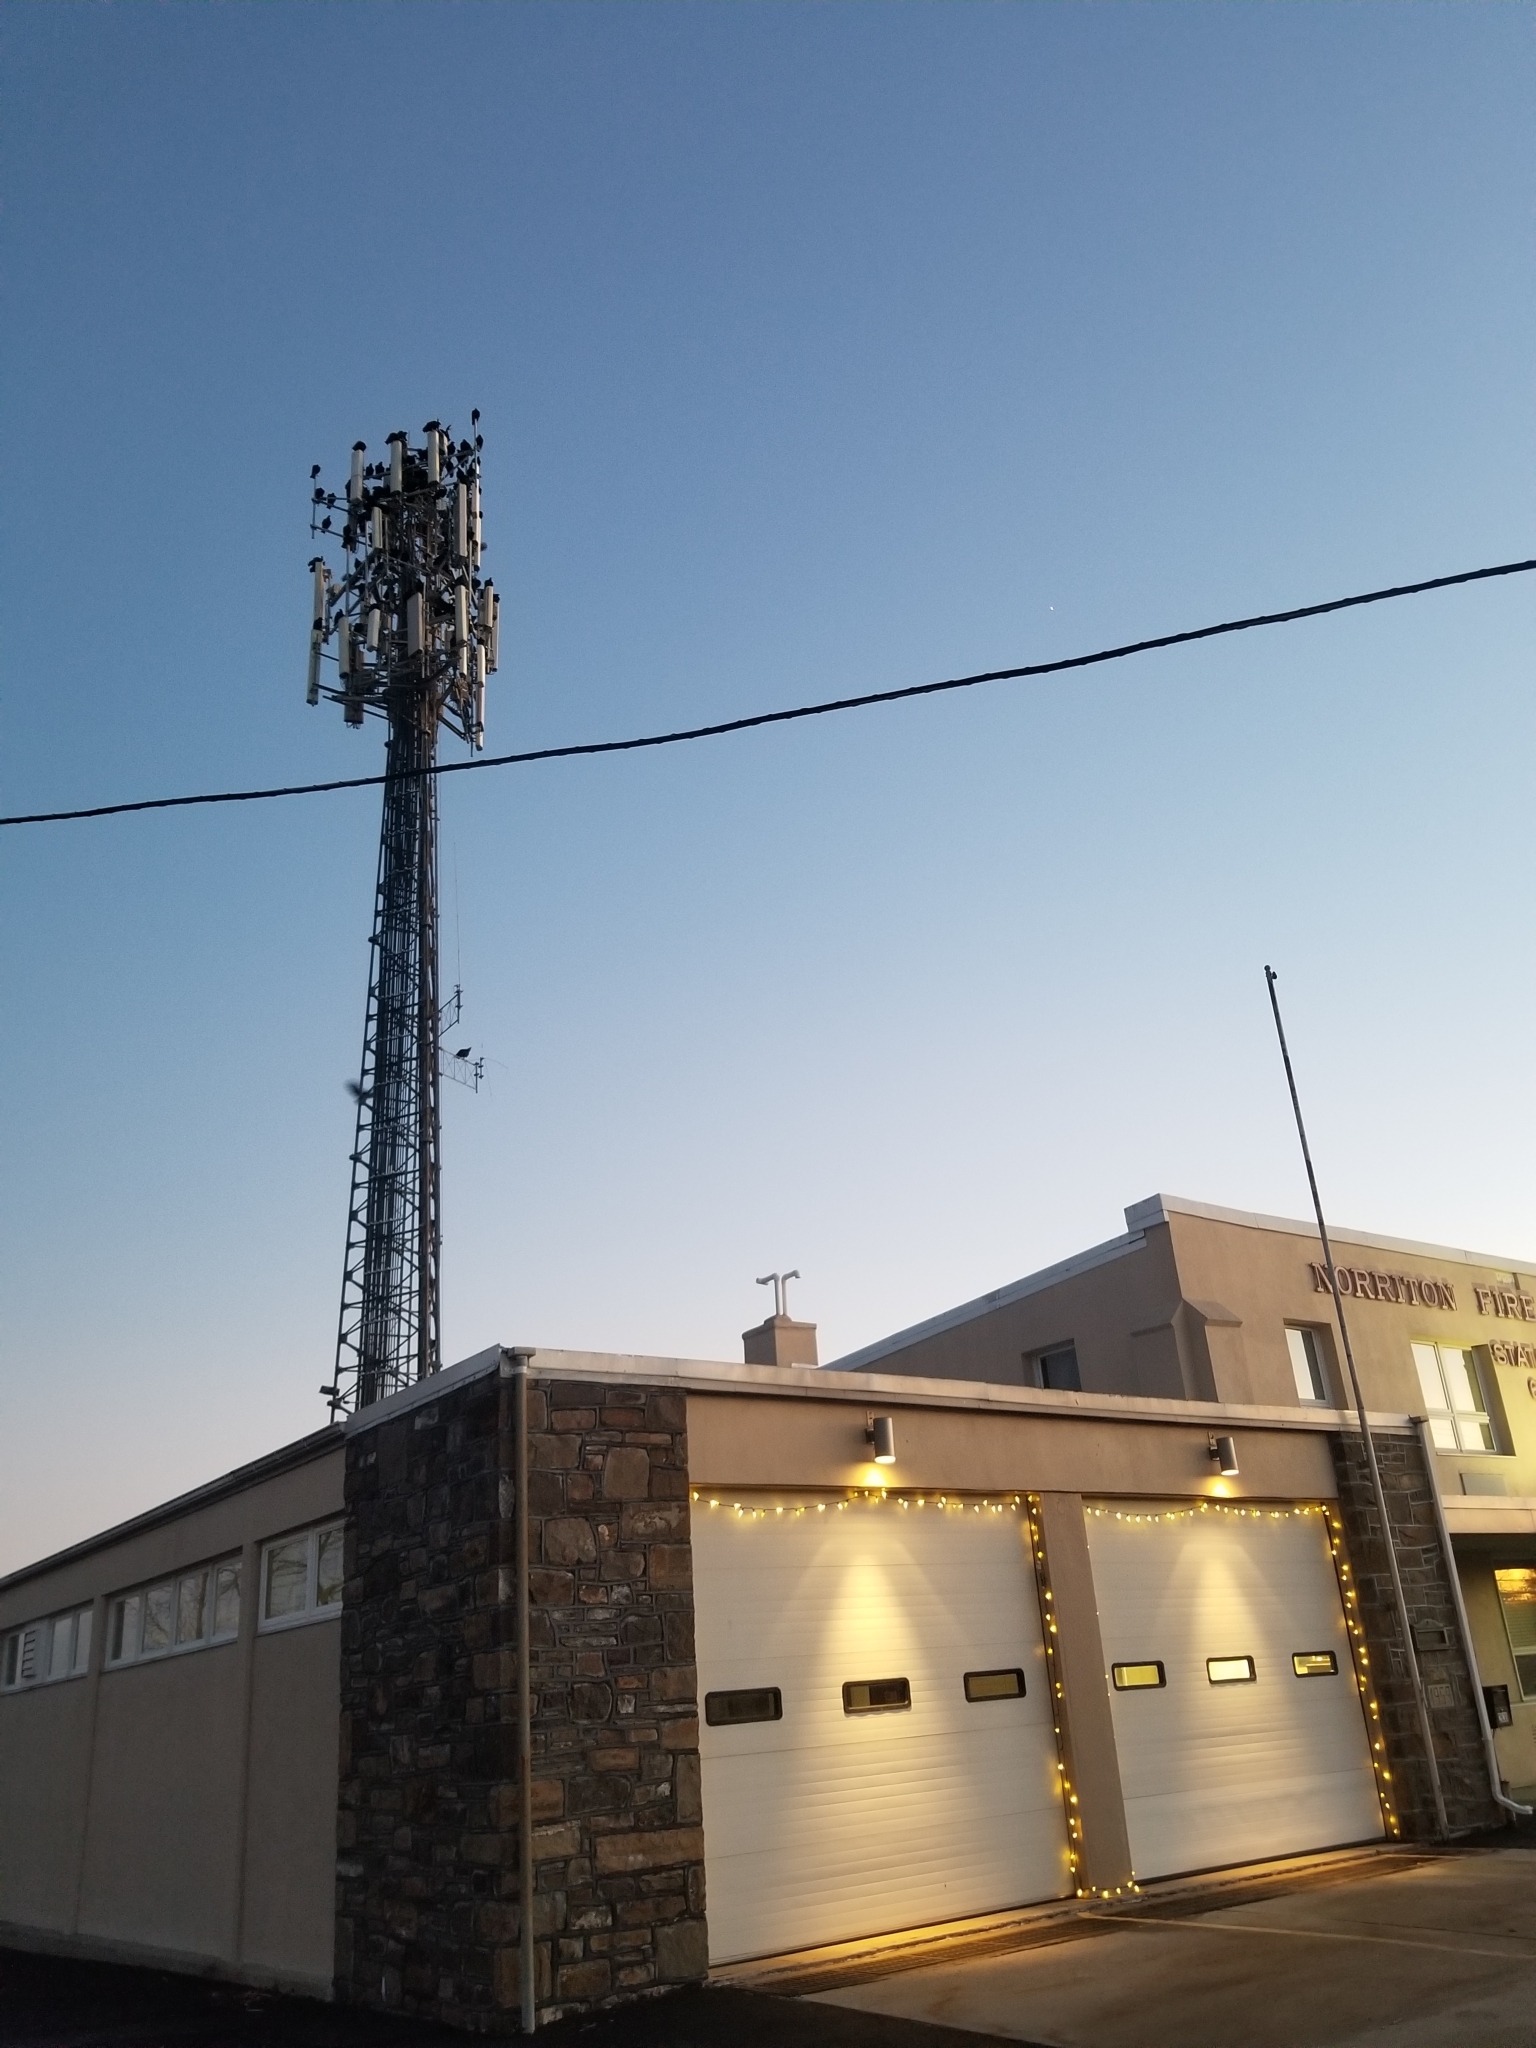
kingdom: Animalia
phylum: Chordata
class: Aves
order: Accipitriformes
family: Cathartidae
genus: Cathartes
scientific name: Cathartes aura
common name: Turkey vulture
